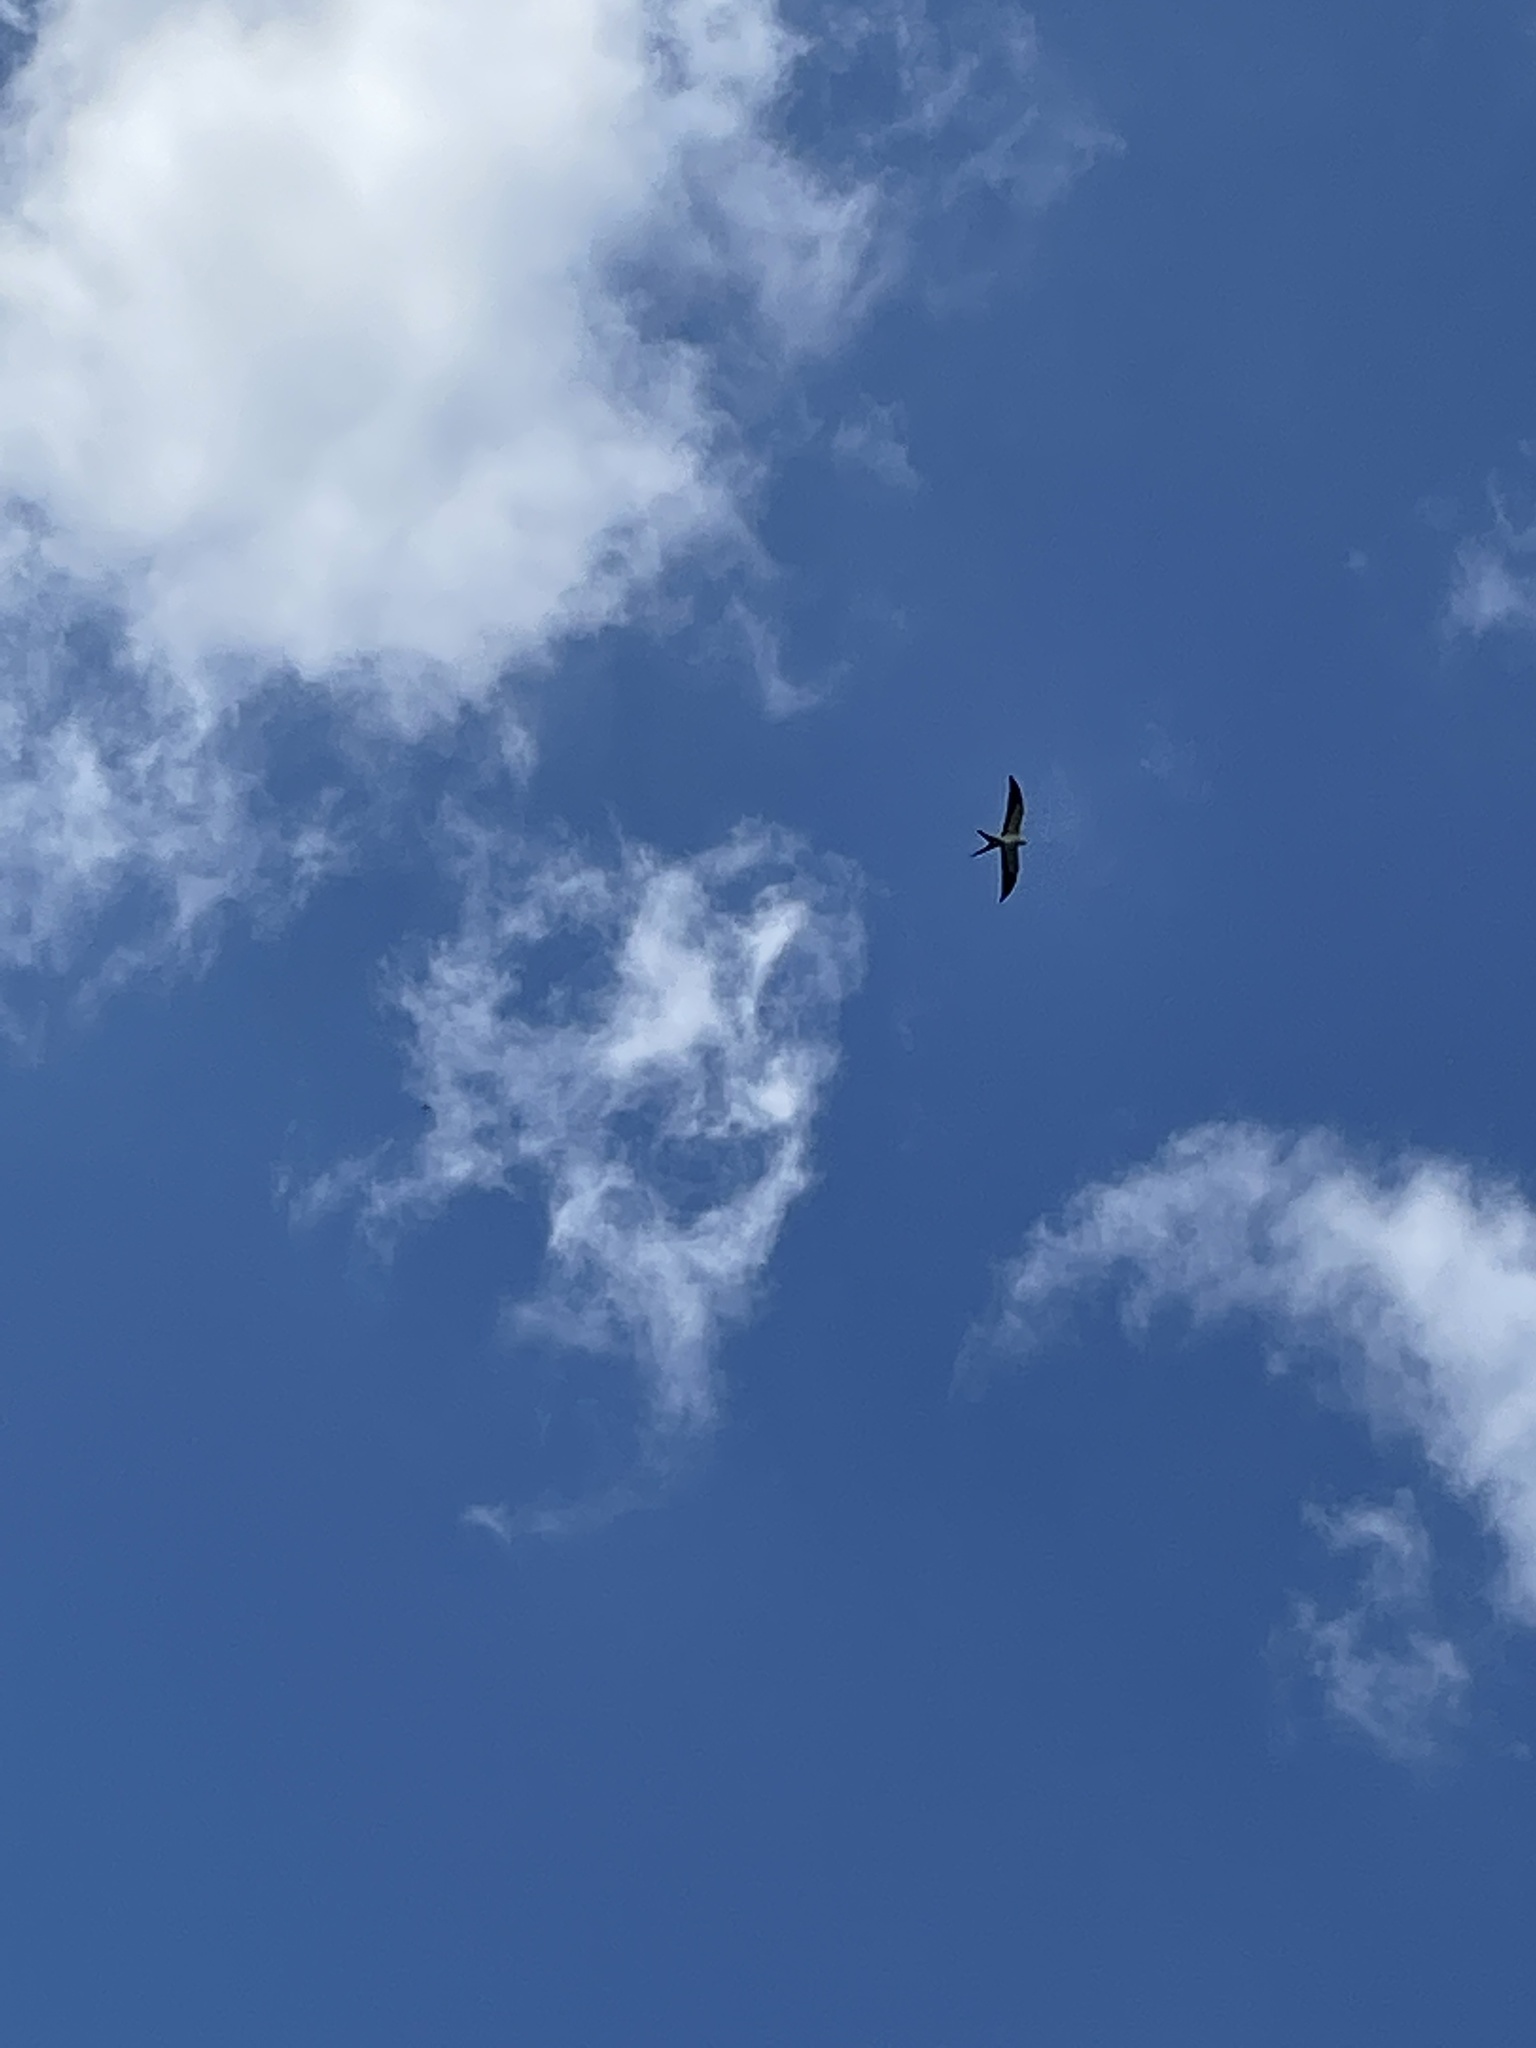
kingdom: Animalia
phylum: Chordata
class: Aves
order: Accipitriformes
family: Accipitridae
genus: Elanoides
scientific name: Elanoides forficatus
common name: Swallow-tailed kite
